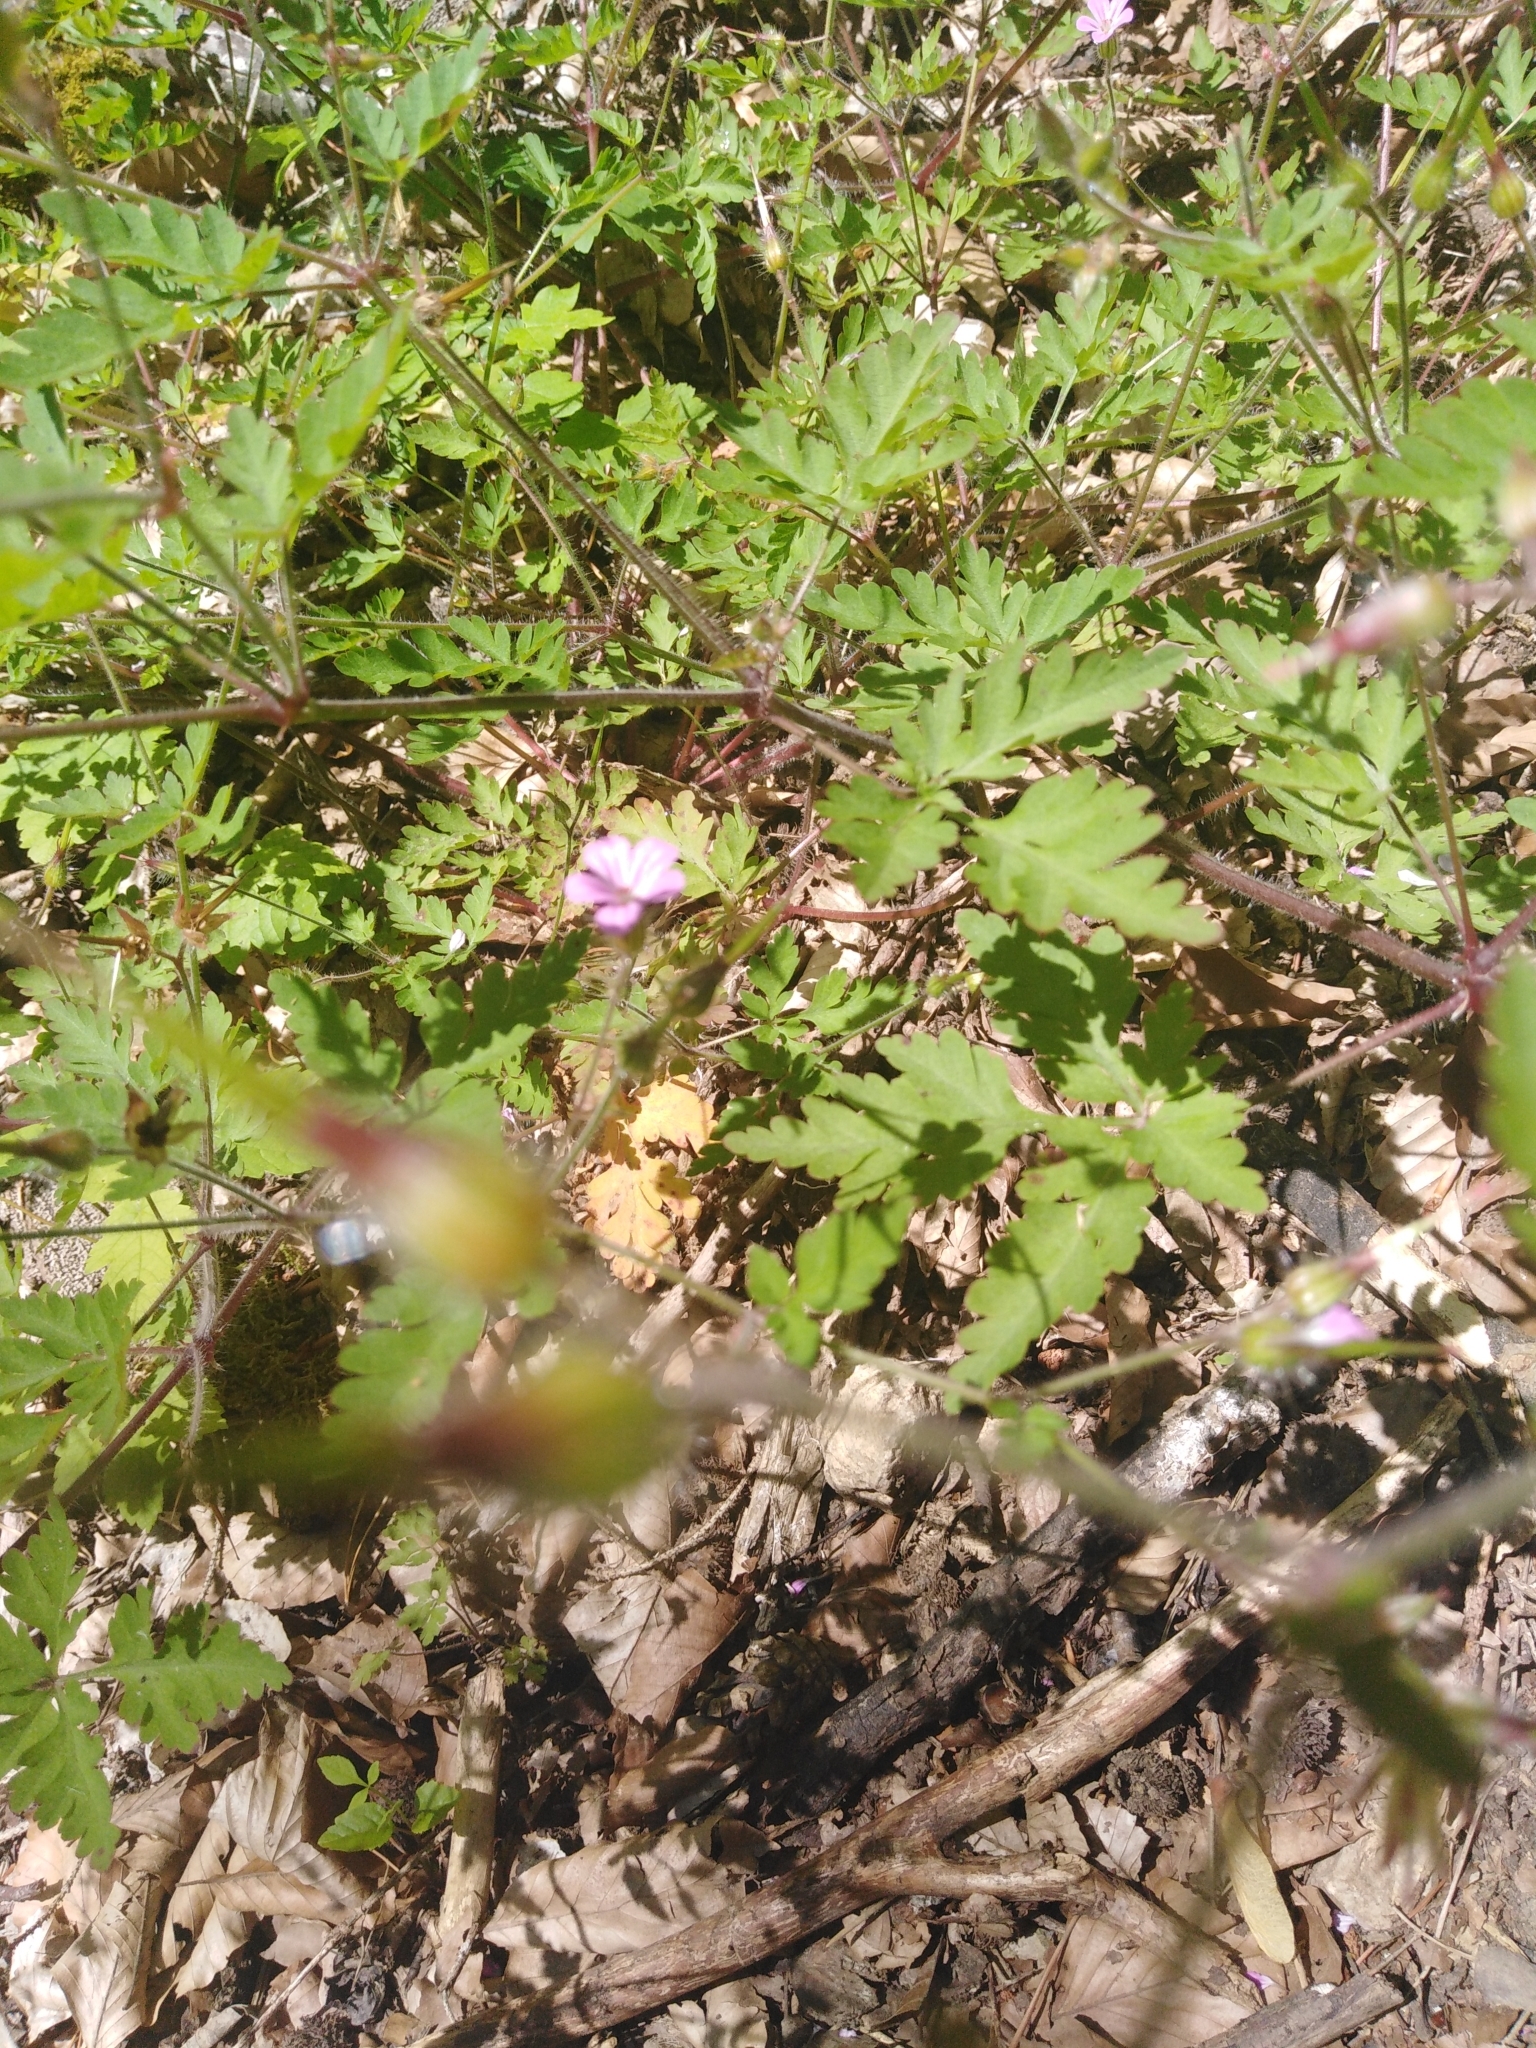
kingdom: Plantae
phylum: Tracheophyta
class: Magnoliopsida
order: Geraniales
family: Geraniaceae
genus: Geranium
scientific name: Geranium robertianum
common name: Herb-robert
